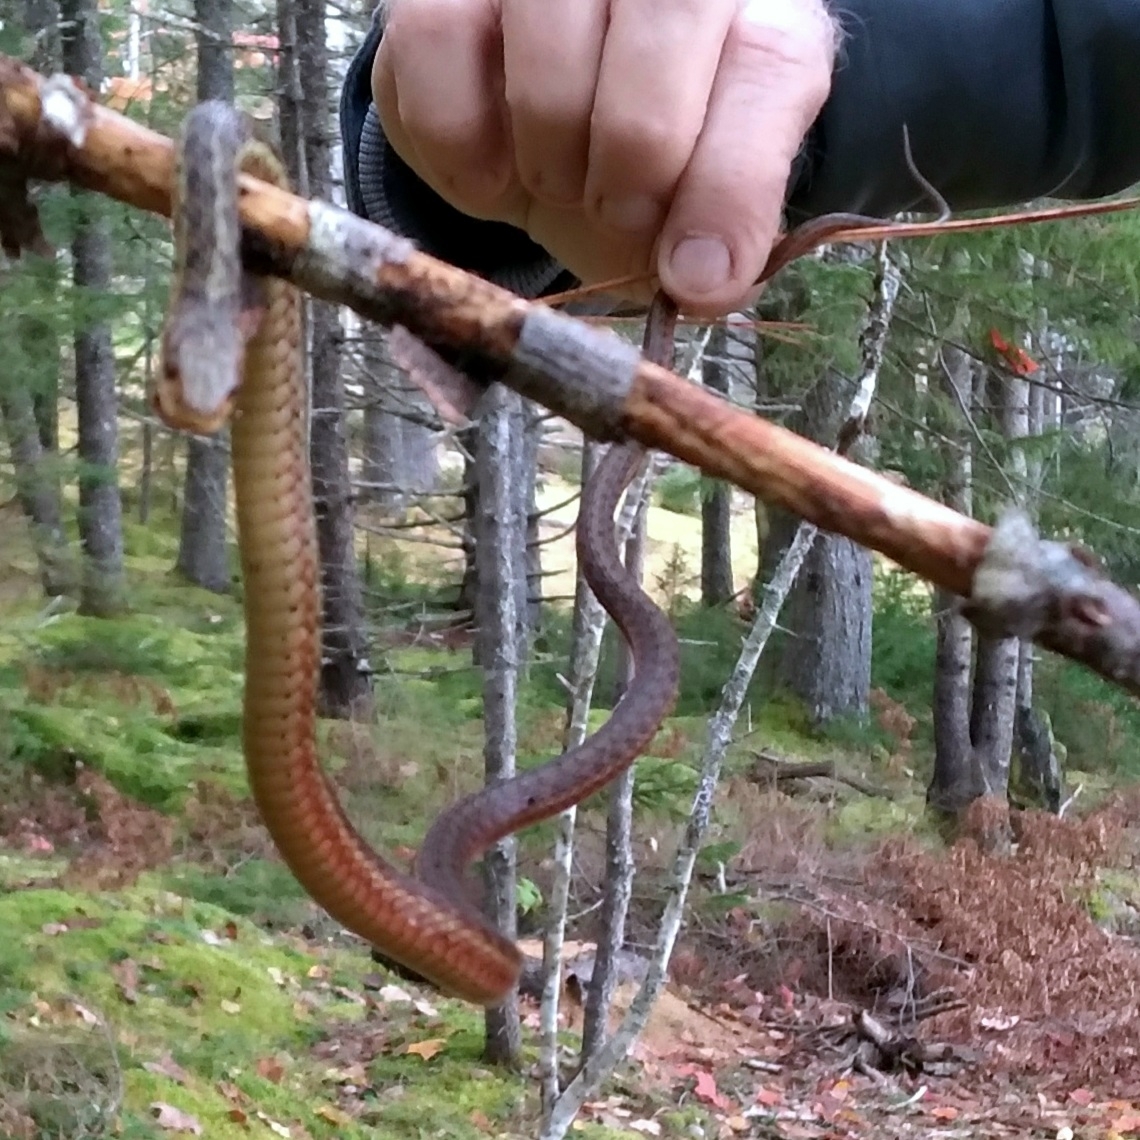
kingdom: Animalia
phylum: Chordata
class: Squamata
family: Colubridae
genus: Thamnophis
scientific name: Thamnophis sirtalis
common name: Common garter snake
